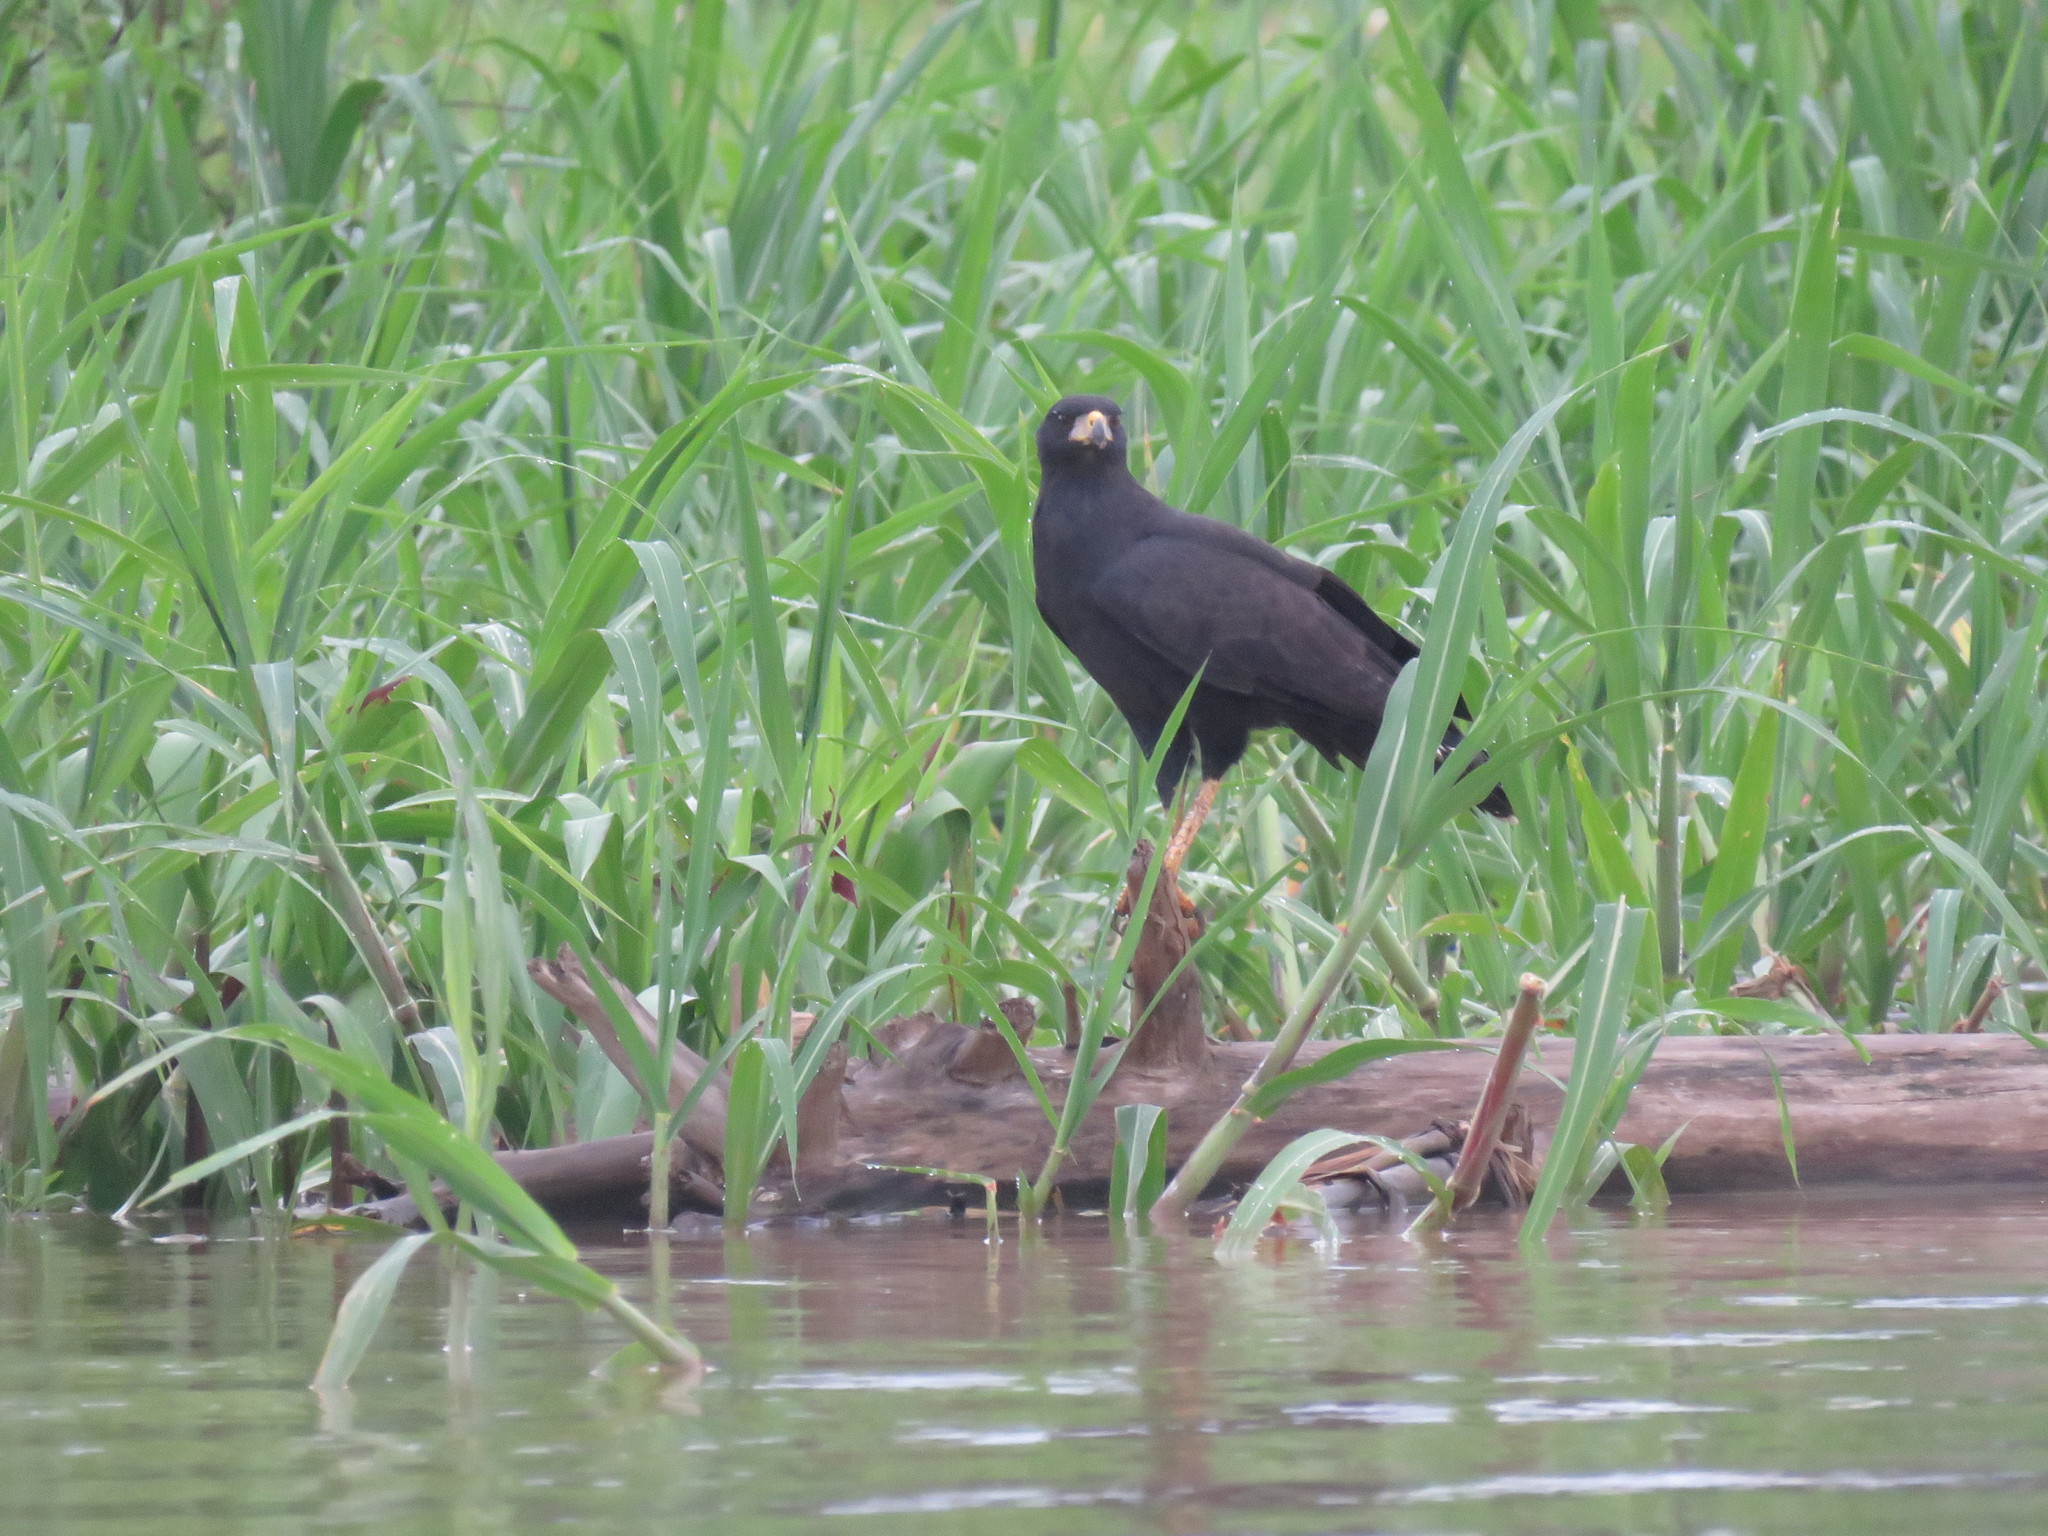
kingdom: Animalia
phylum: Chordata
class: Aves
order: Accipitriformes
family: Accipitridae
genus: Buteogallus
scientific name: Buteogallus urubitinga
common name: Great black hawk
